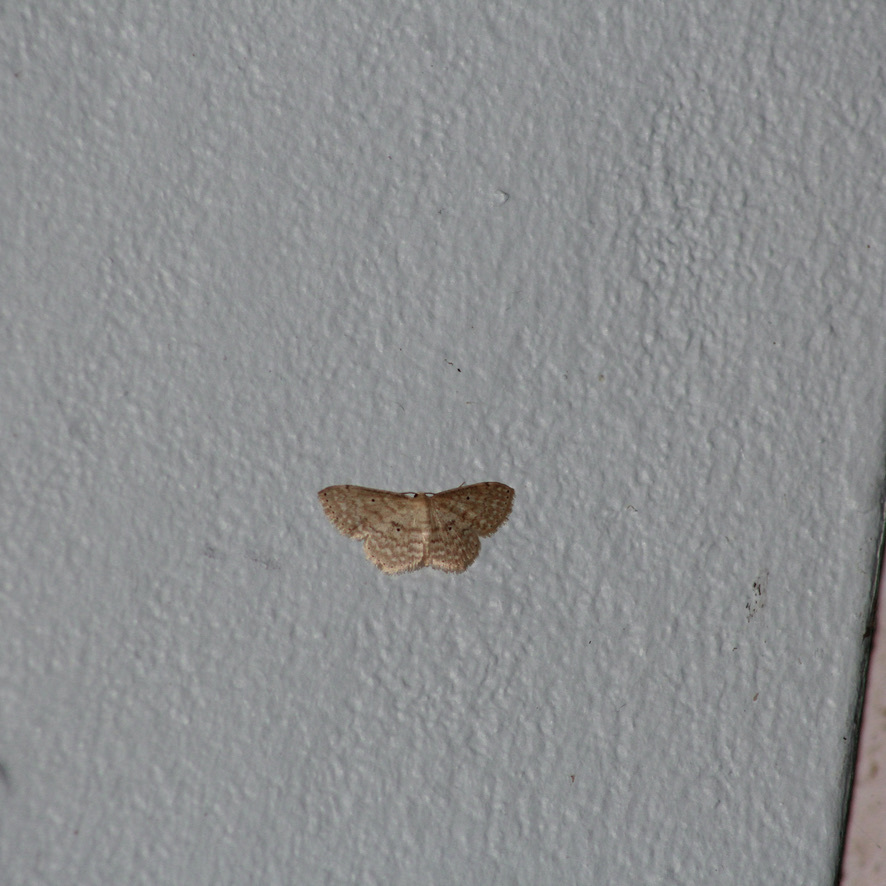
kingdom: Animalia
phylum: Arthropoda
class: Insecta
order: Lepidoptera
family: Geometridae
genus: Scopula
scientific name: Scopula apparitaria
